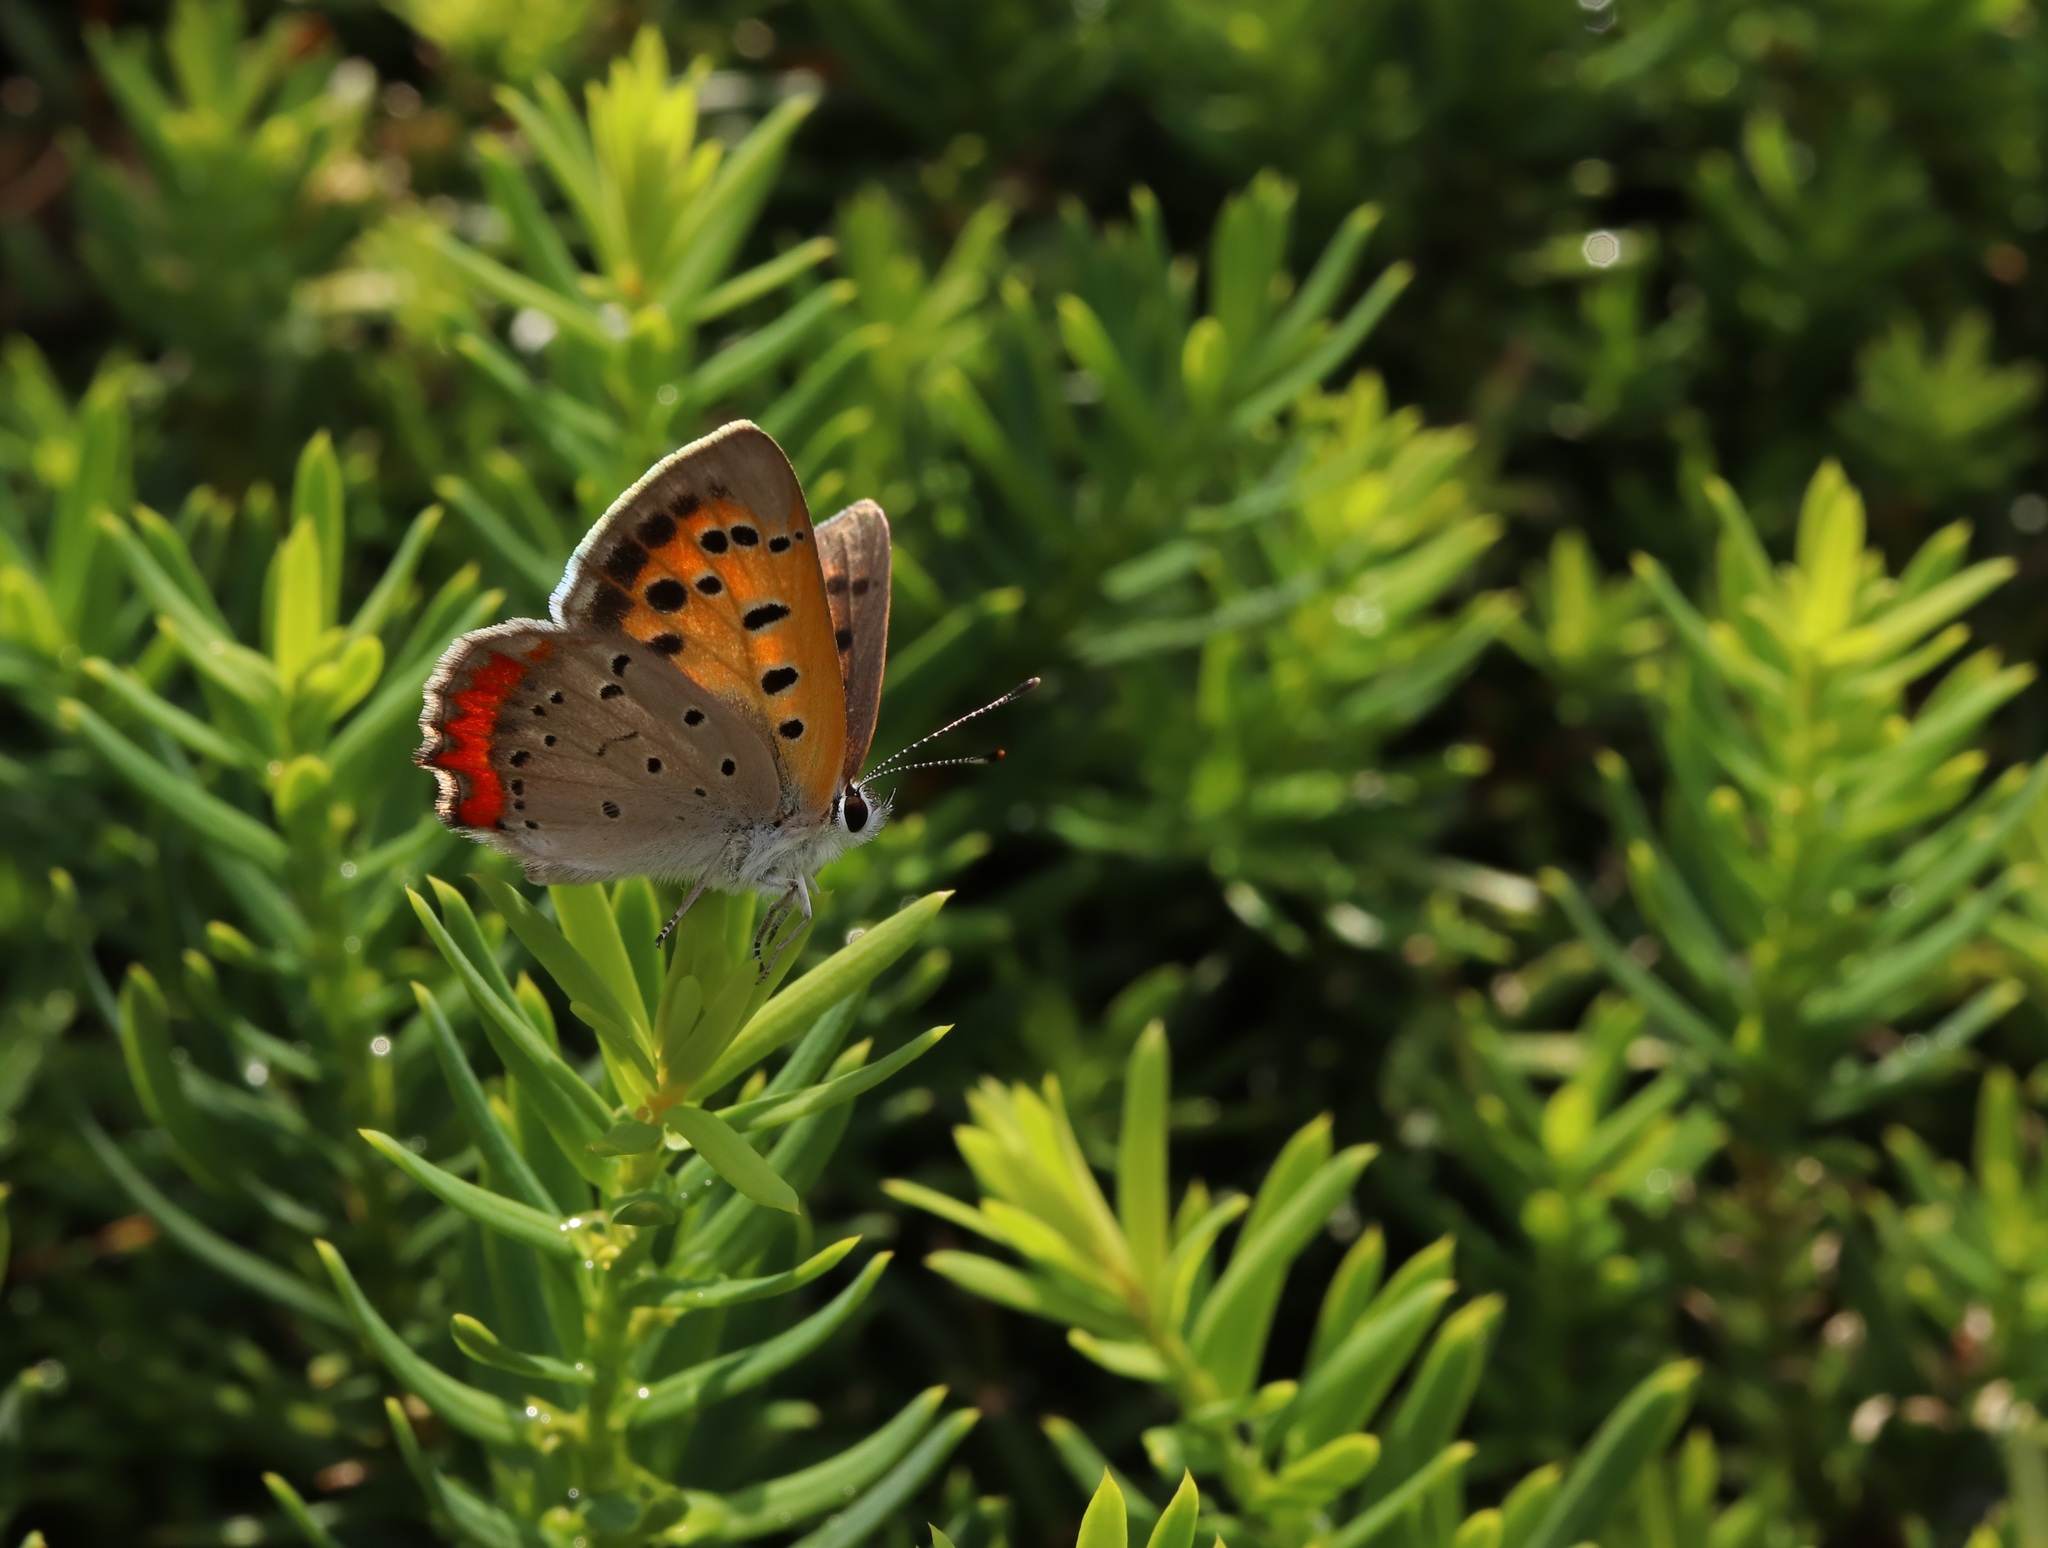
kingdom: Animalia
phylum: Arthropoda
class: Insecta
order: Lepidoptera
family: Lycaenidae
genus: Lycaena
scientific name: Lycaena phlaeas
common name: Small copper
